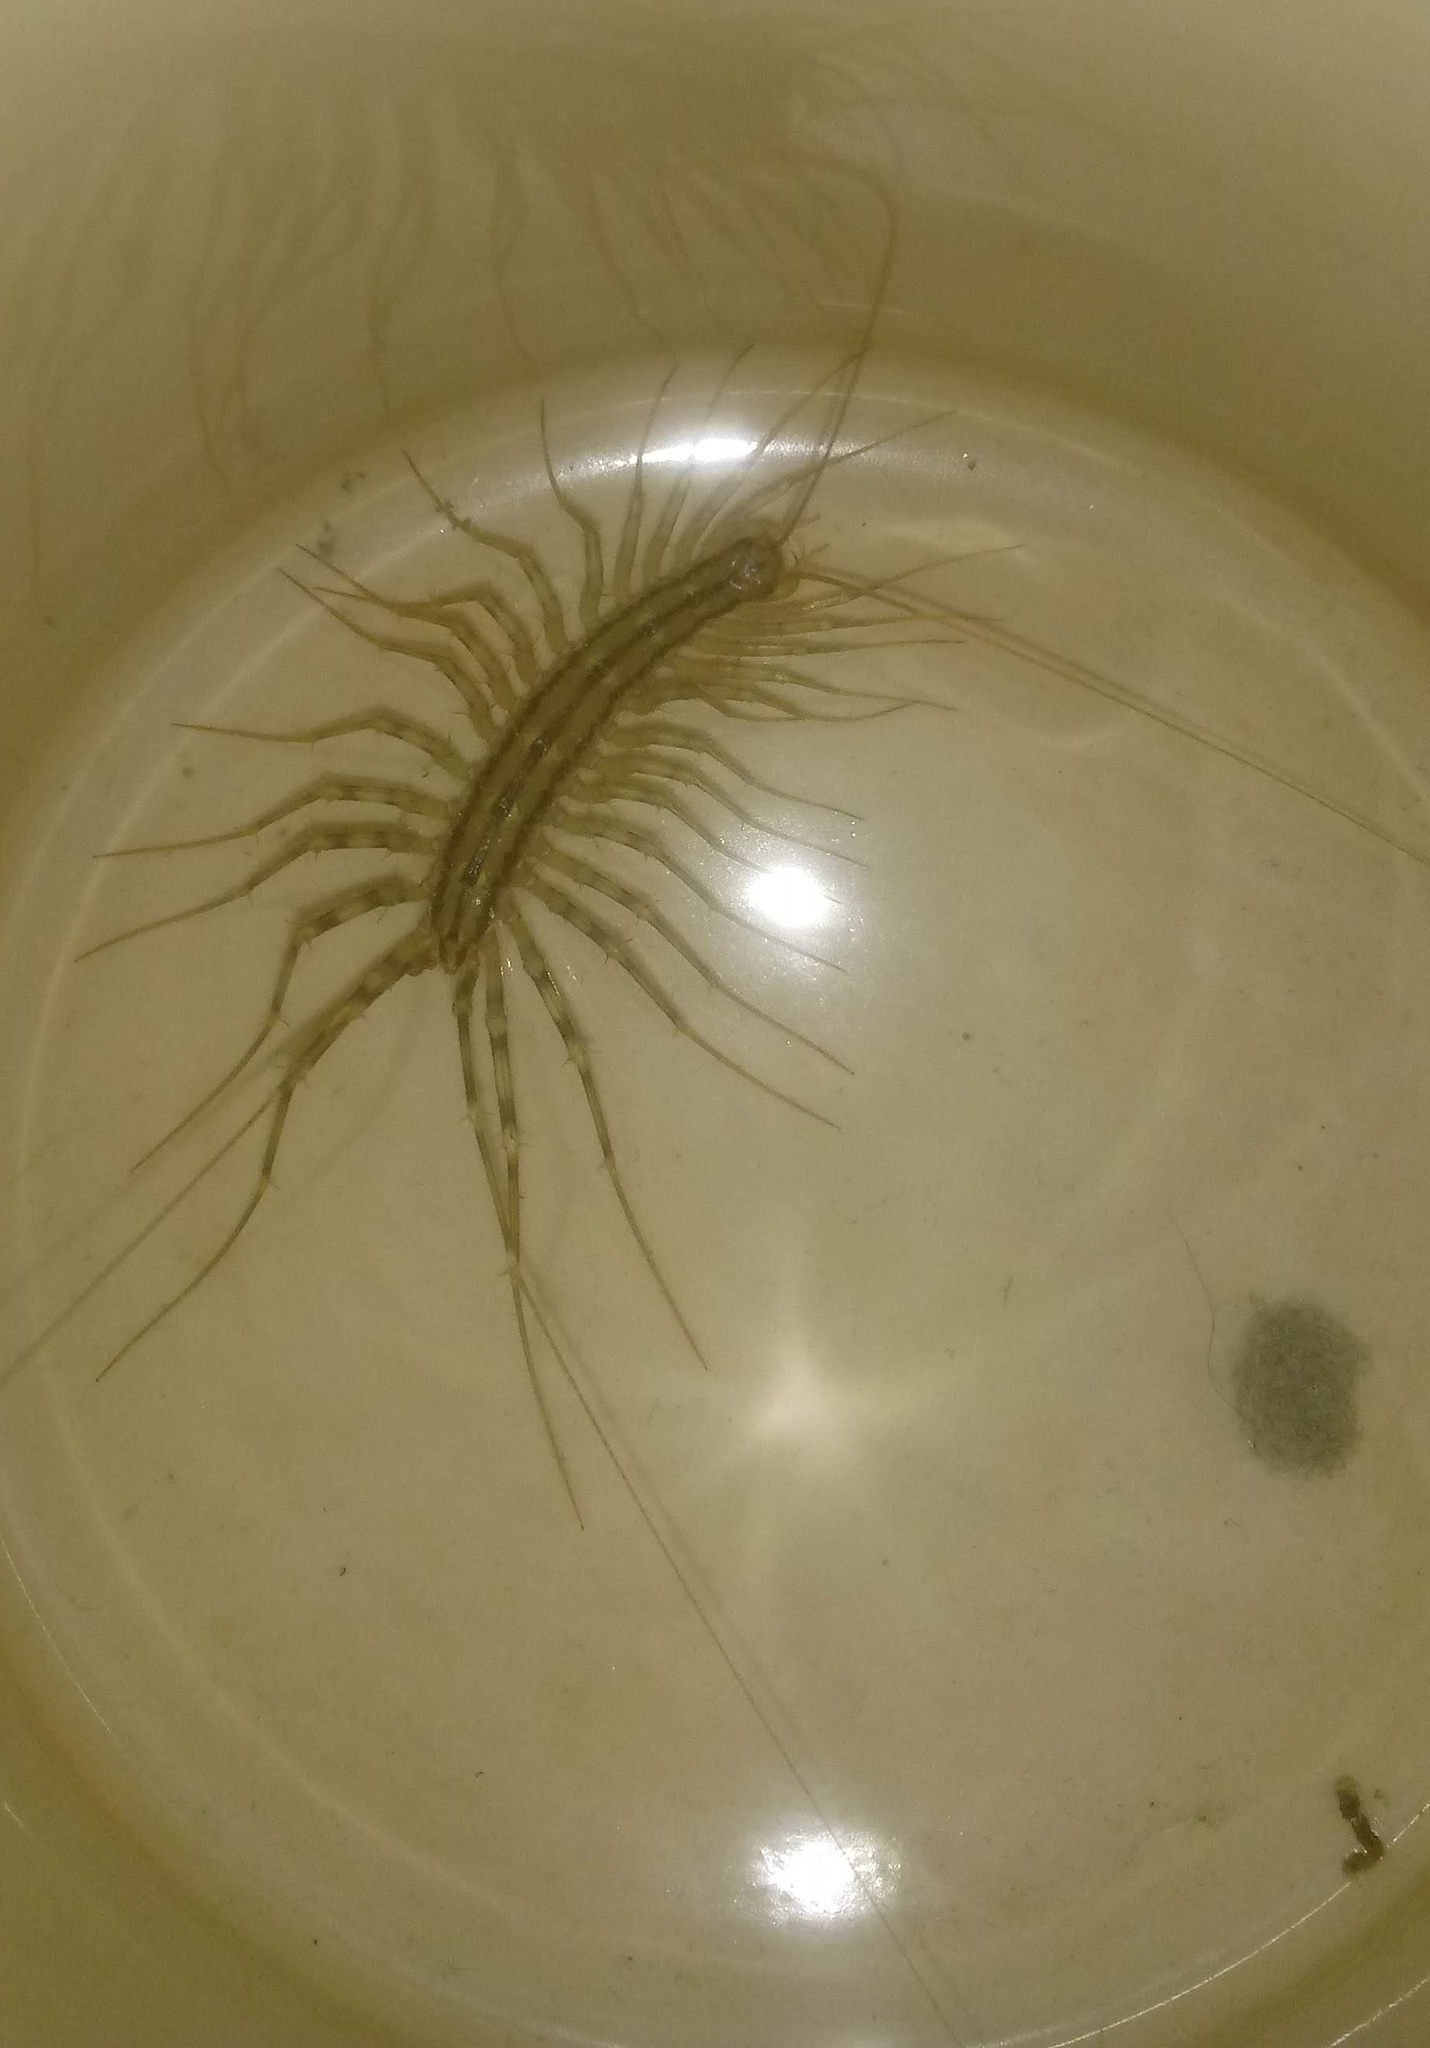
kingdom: Animalia
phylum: Arthropoda
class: Chilopoda
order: Scutigeromorpha
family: Scutigeridae
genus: Scutigera
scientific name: Scutigera coleoptrata
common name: House centipede
